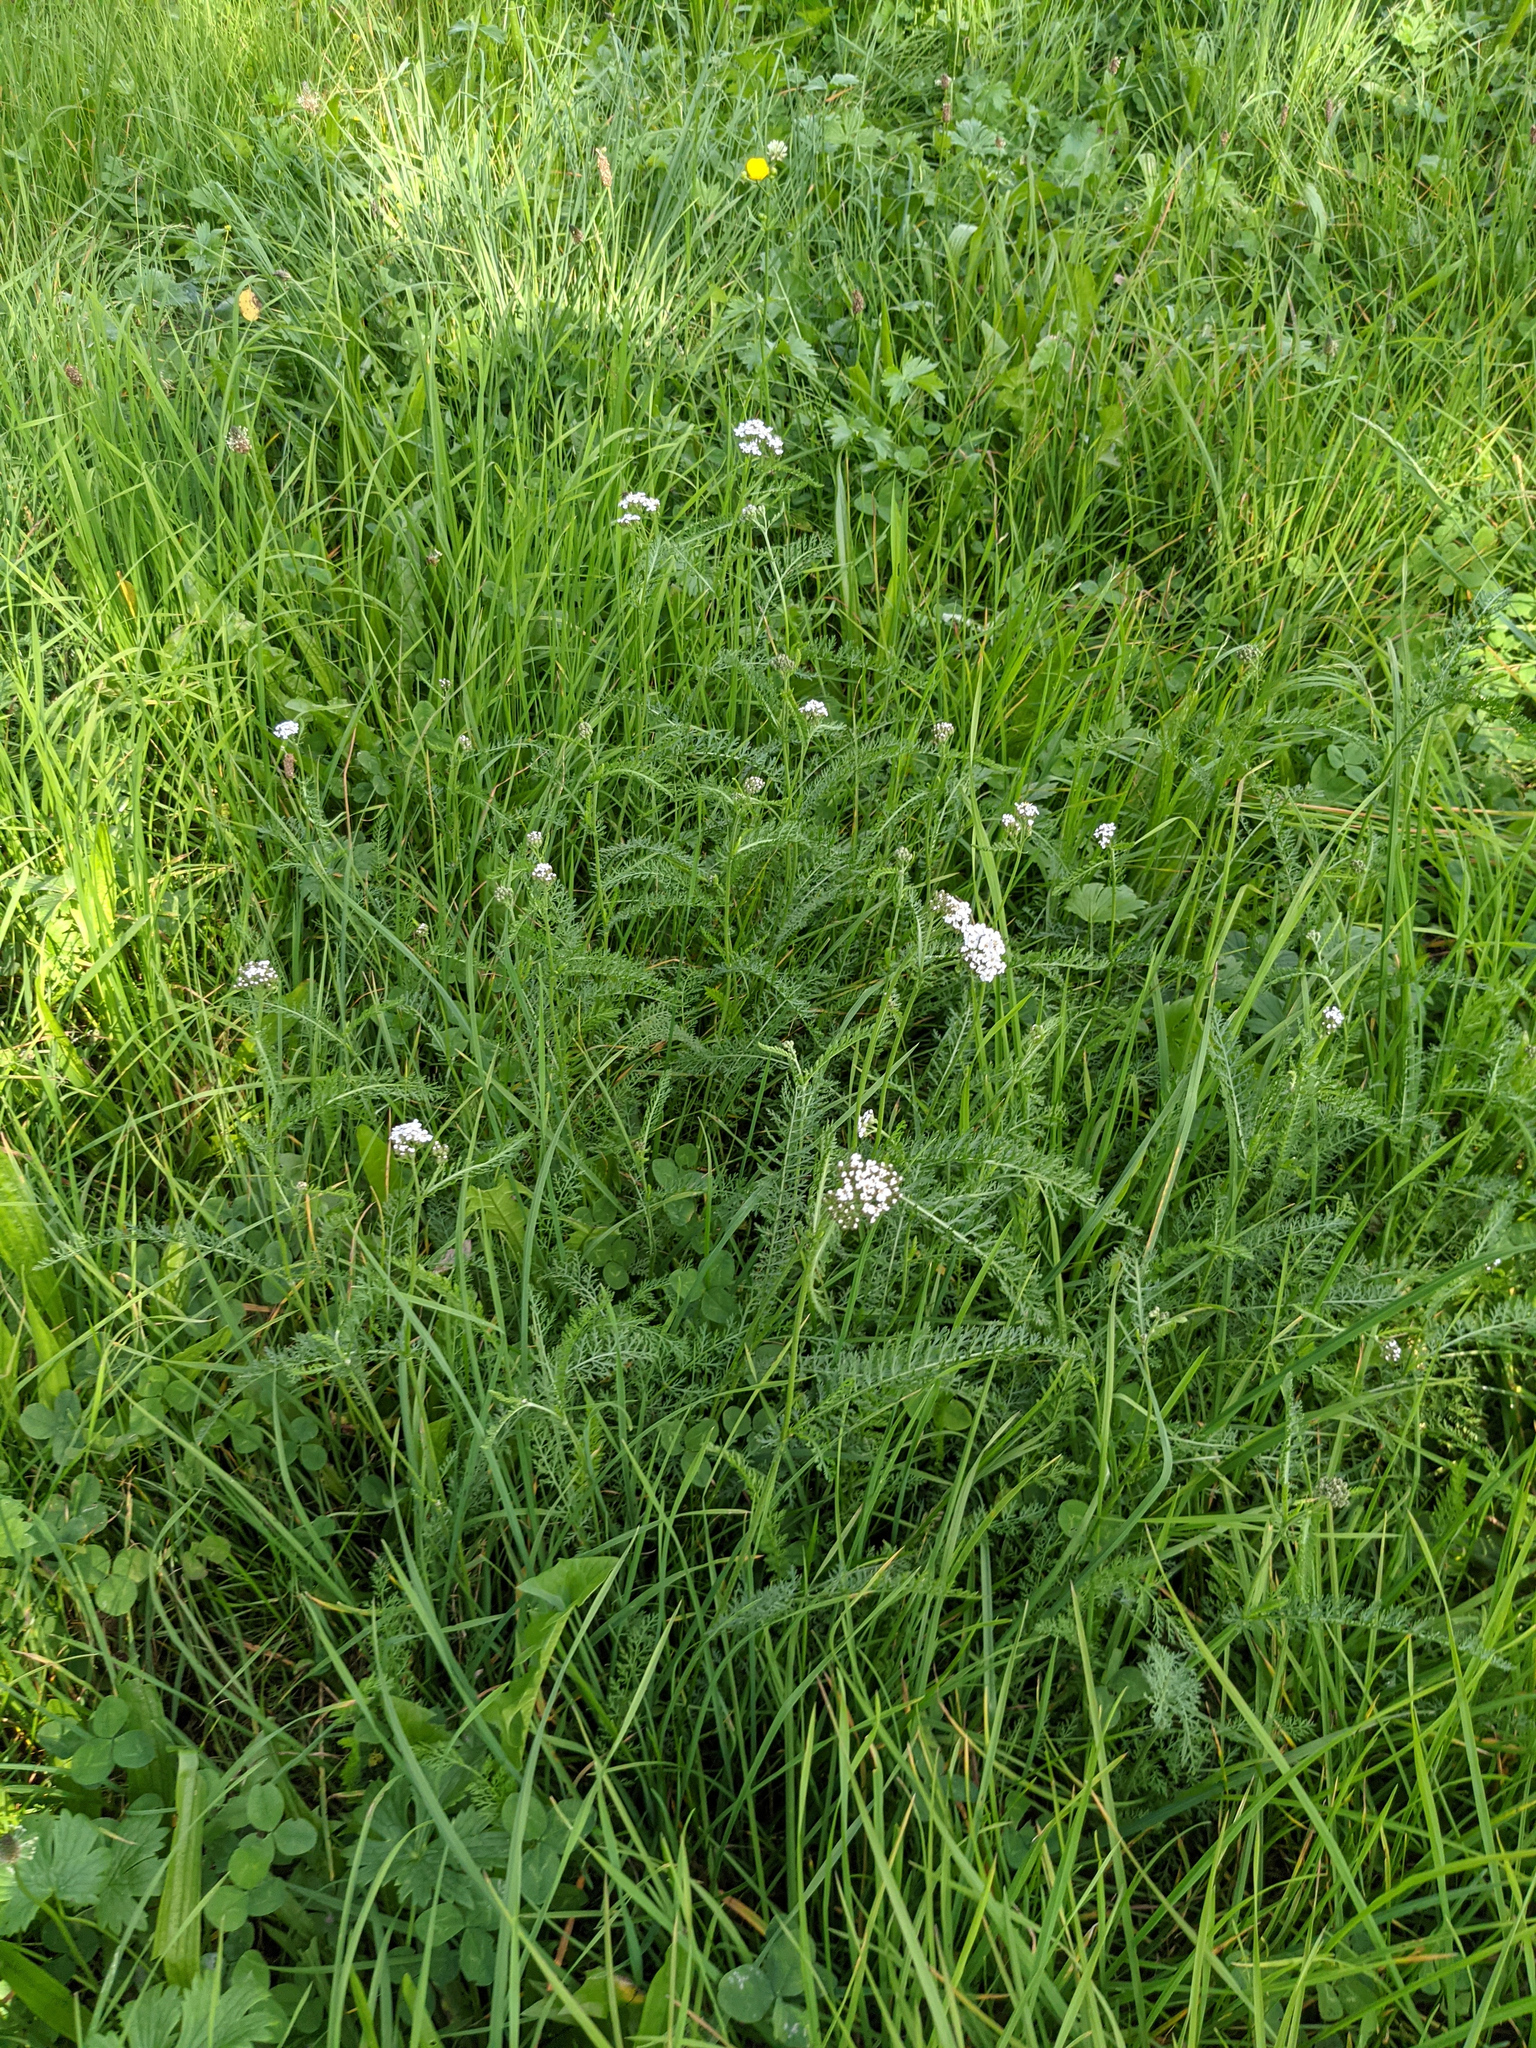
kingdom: Plantae
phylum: Tracheophyta
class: Magnoliopsida
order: Asterales
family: Asteraceae
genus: Achillea
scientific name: Achillea millefolium
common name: Yarrow
